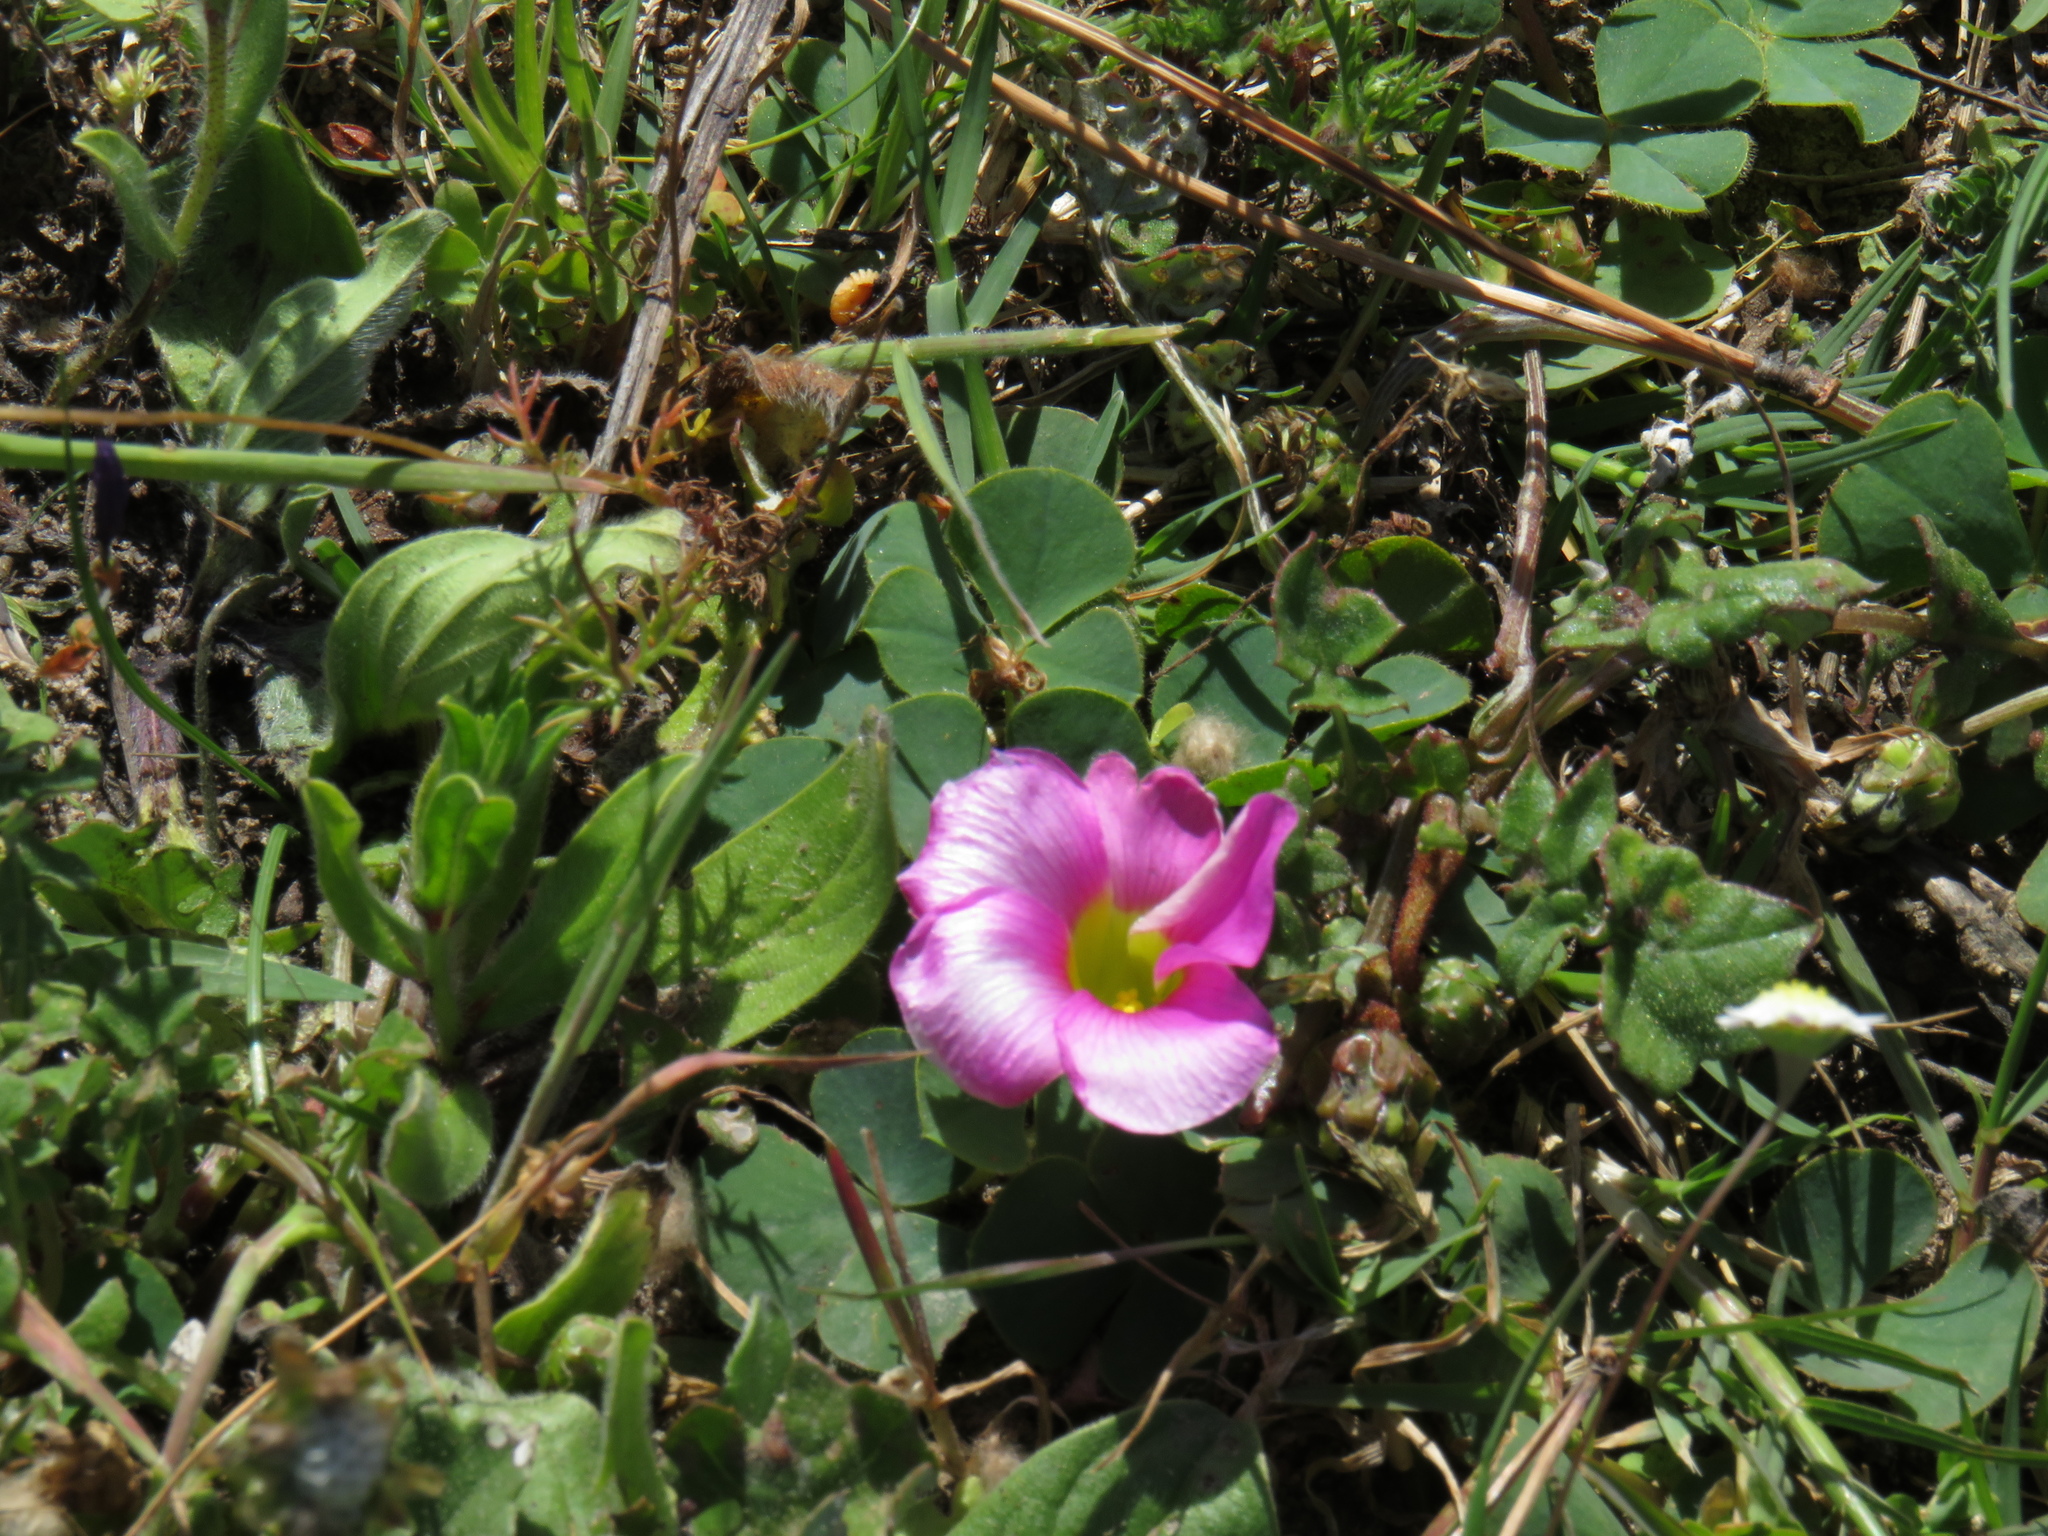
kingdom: Plantae
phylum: Tracheophyta
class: Magnoliopsida
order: Oxalidales
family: Oxalidaceae
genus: Oxalis
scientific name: Oxalis purpurea
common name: Purple woodsorrel
